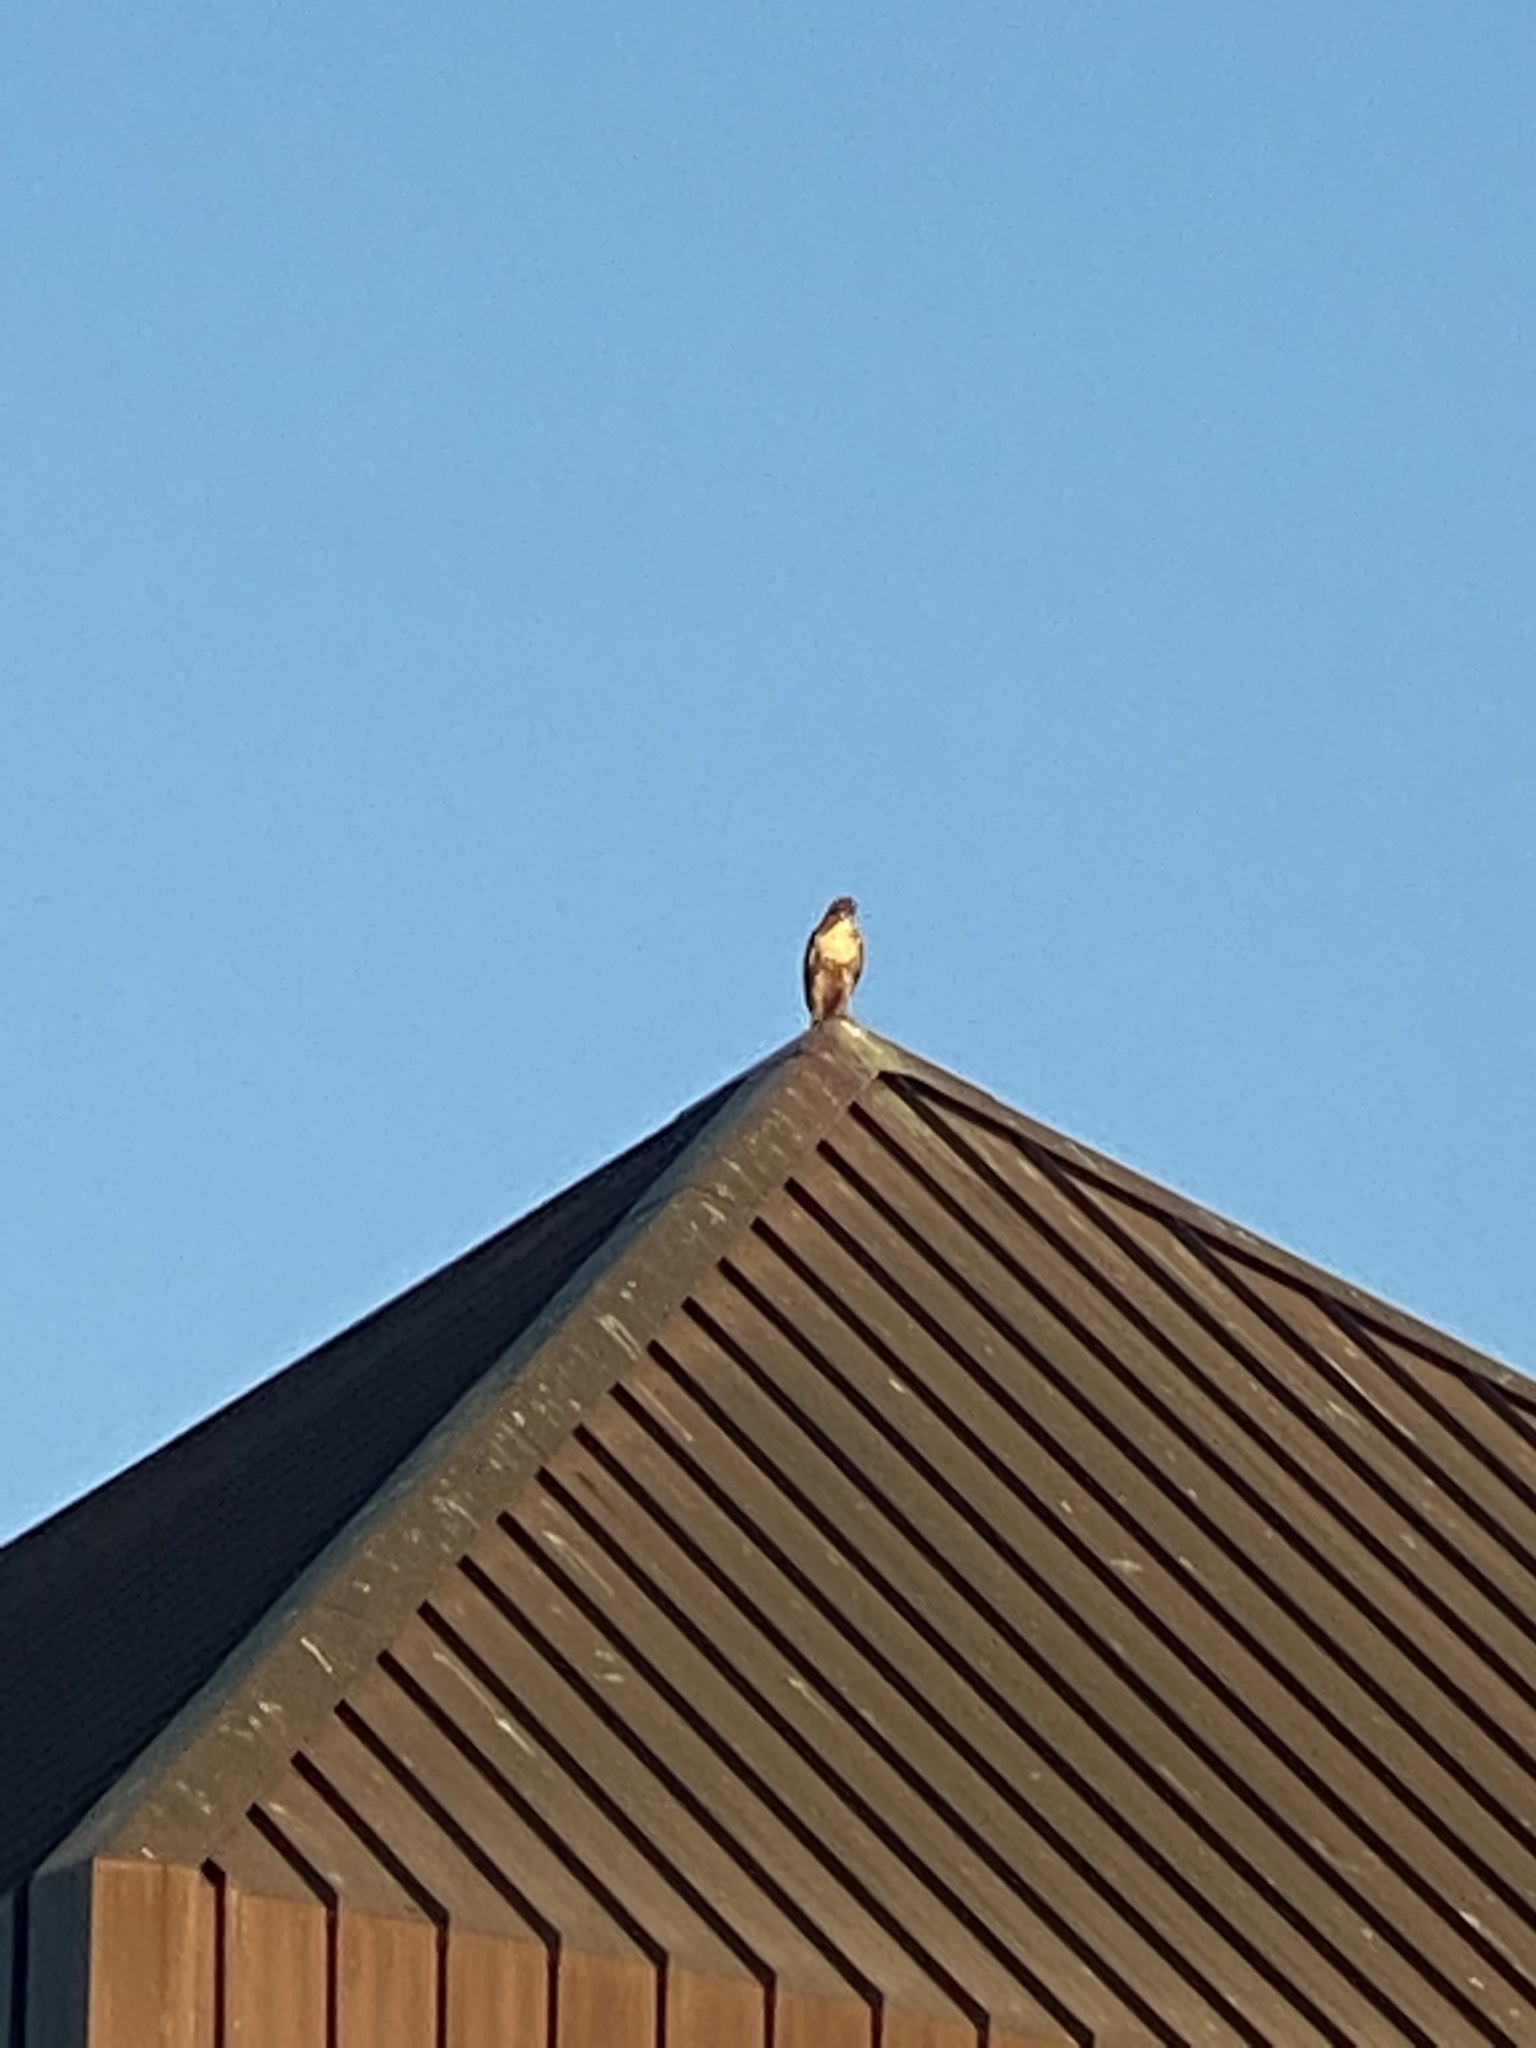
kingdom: Animalia
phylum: Chordata
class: Aves
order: Accipitriformes
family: Accipitridae
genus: Buteo
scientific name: Buteo jamaicensis
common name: Red-tailed hawk
